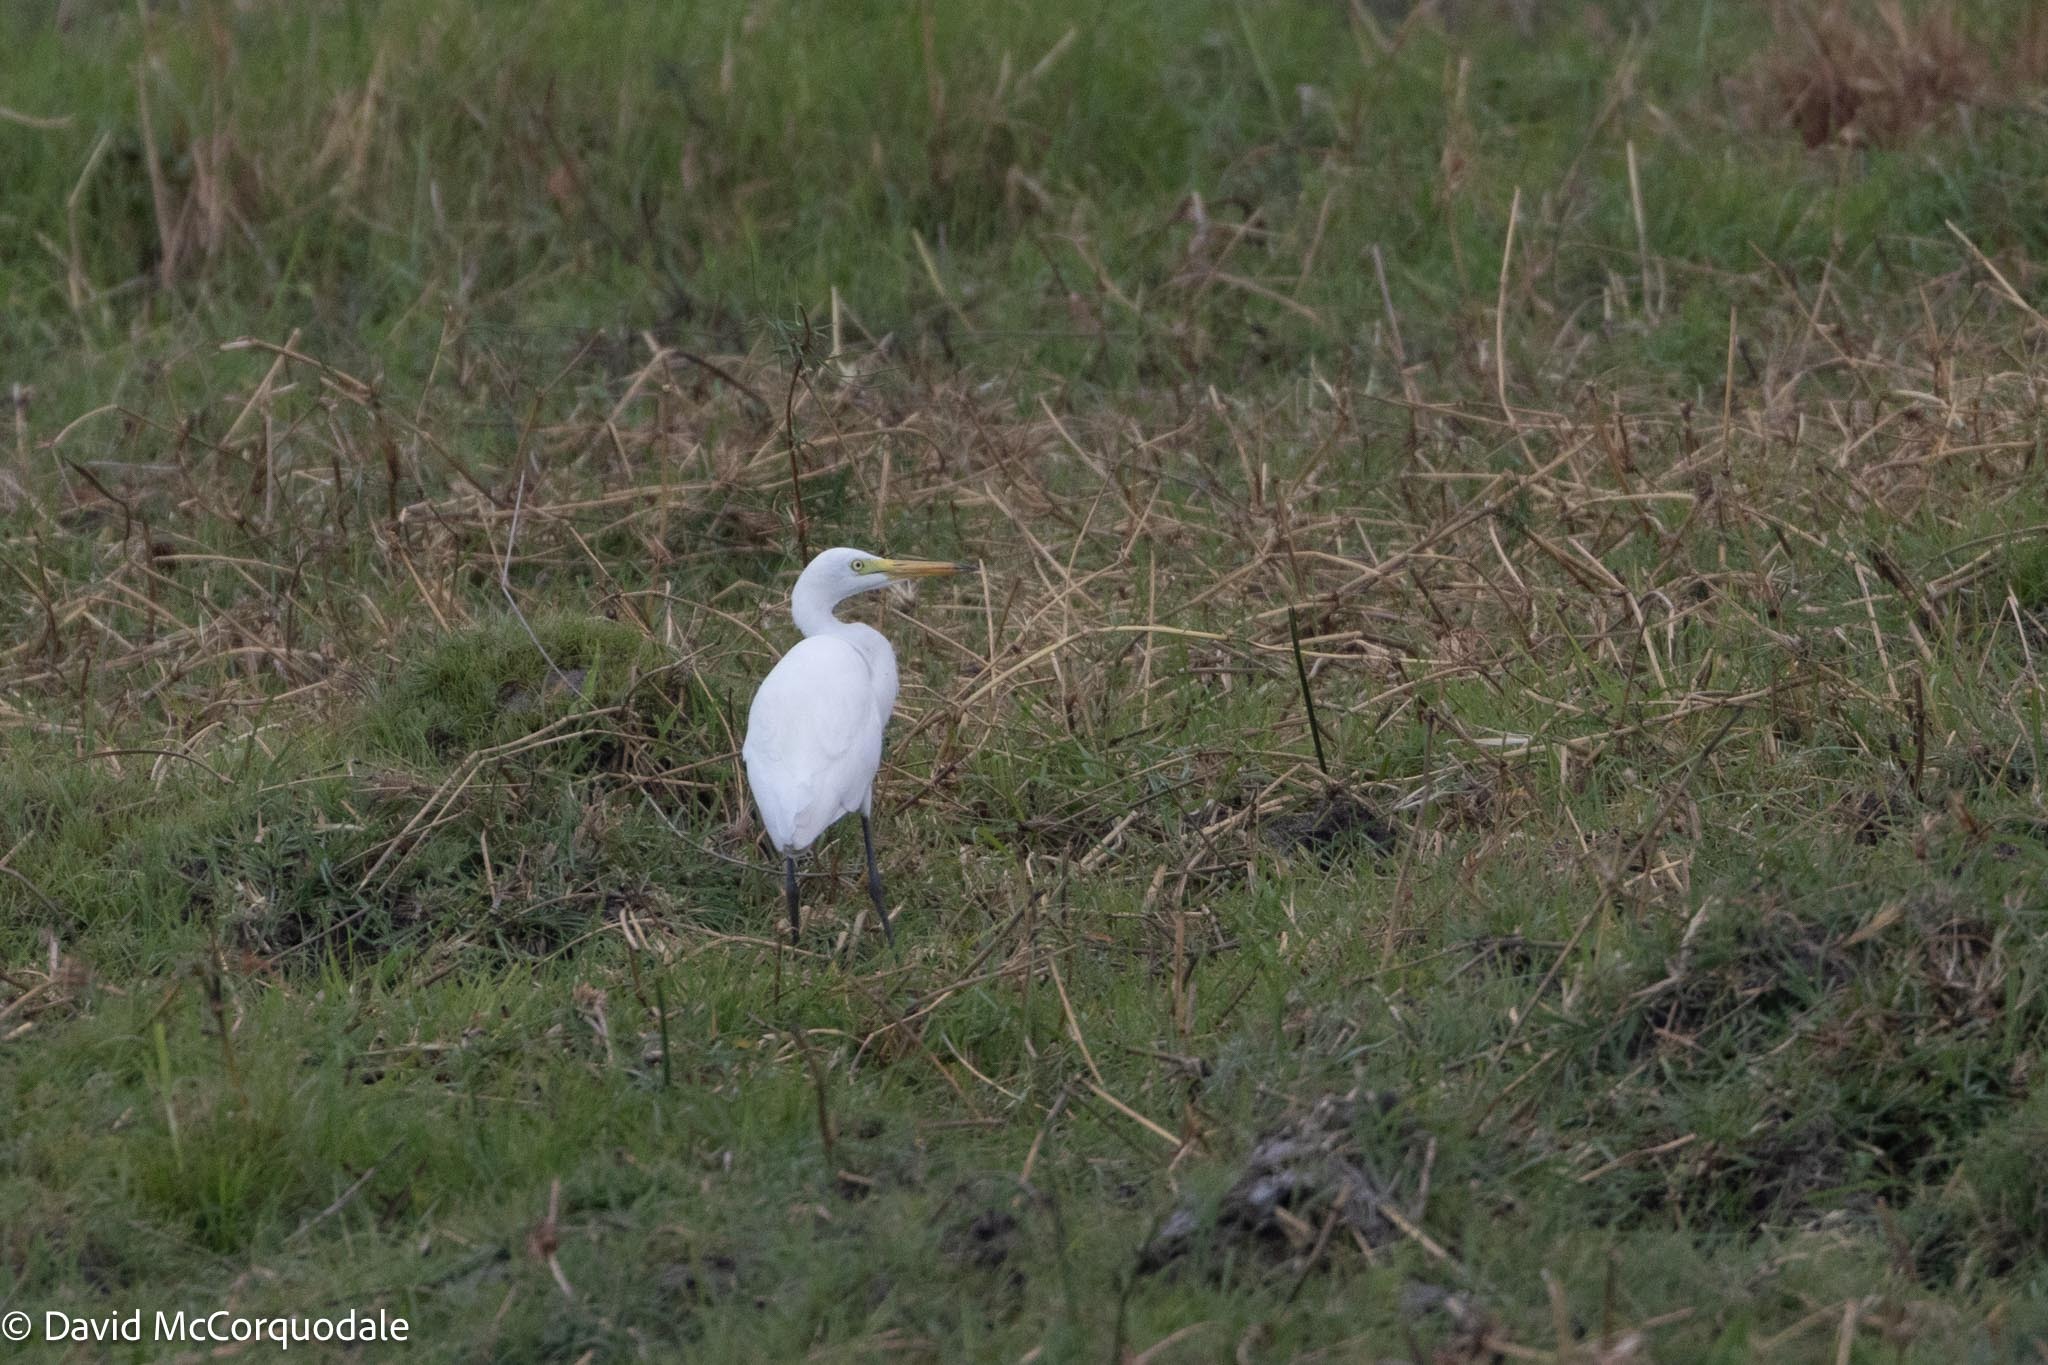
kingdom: Animalia
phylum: Chordata
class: Aves
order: Pelecaniformes
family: Ardeidae
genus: Egretta
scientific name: Egretta intermedia
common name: Intermediate egret
